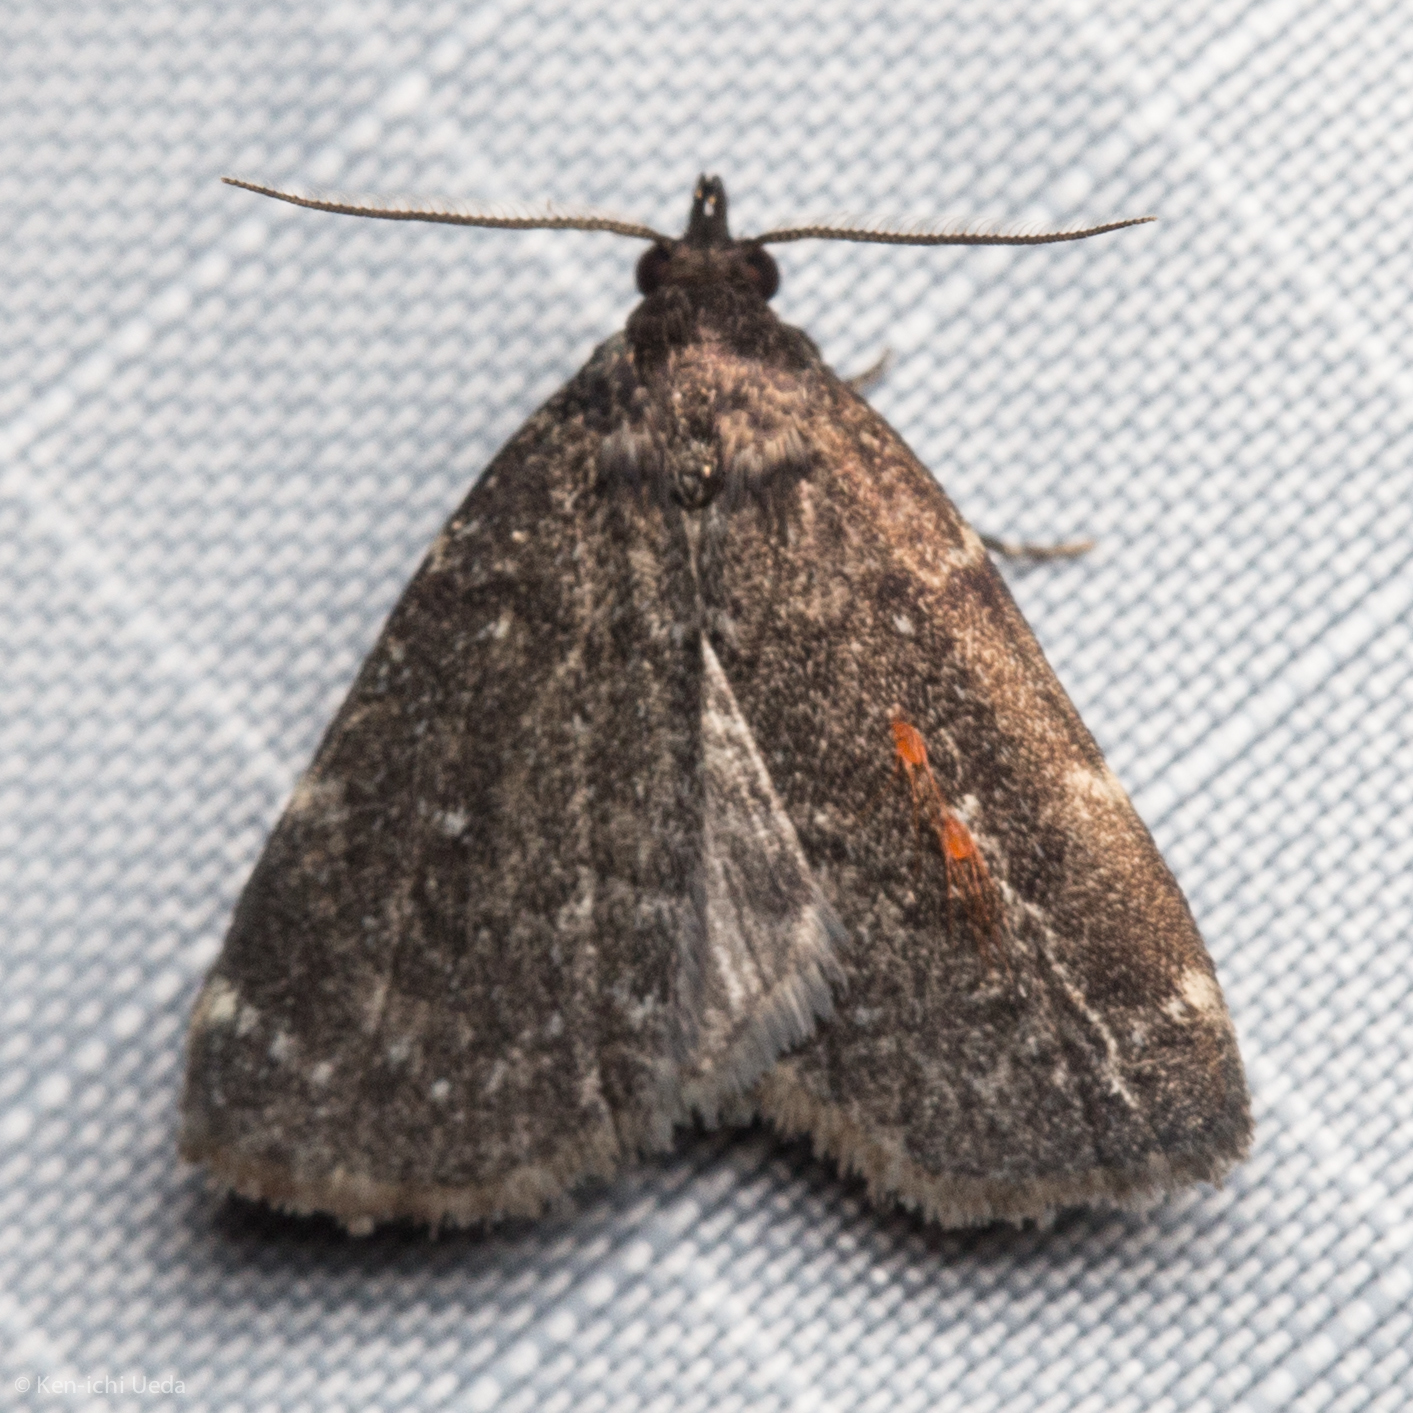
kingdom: Animalia
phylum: Arthropoda
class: Insecta
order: Lepidoptera
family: Erebidae
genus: Idia
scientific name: Idia julia
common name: Julia's idia moth
